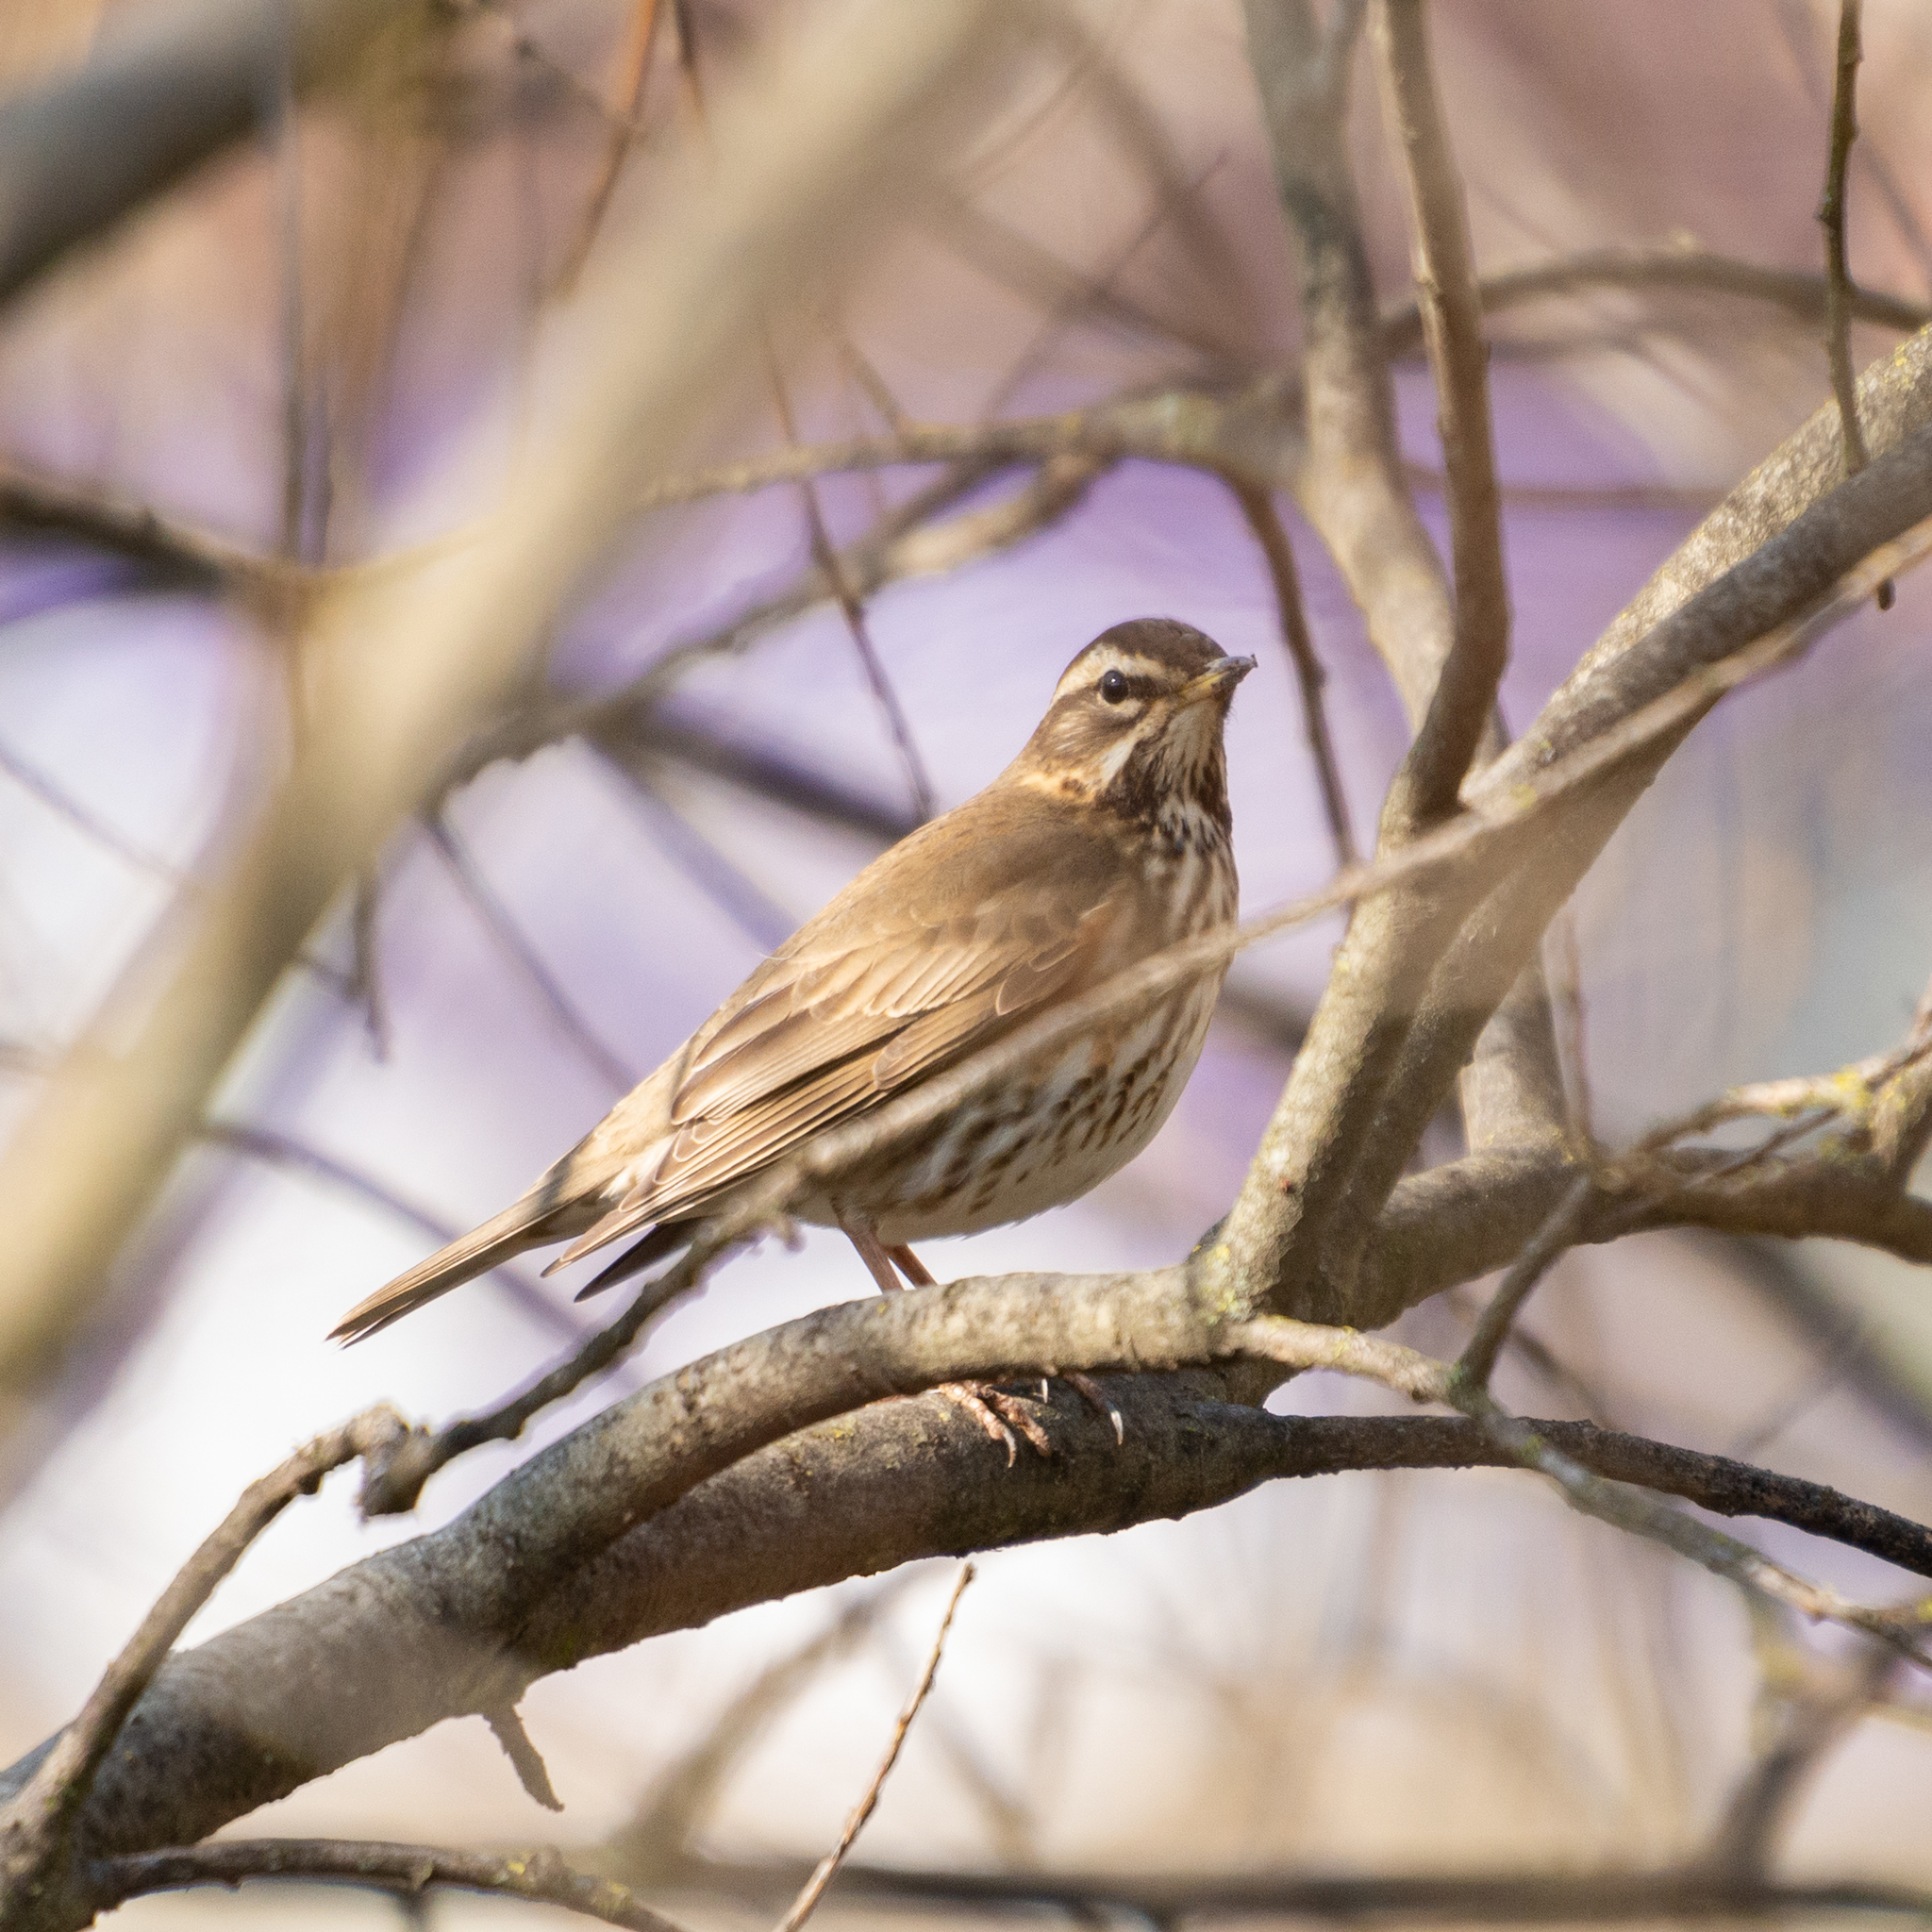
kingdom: Animalia
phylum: Chordata
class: Aves
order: Passeriformes
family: Turdidae
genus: Turdus
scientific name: Turdus iliacus
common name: Redwing
